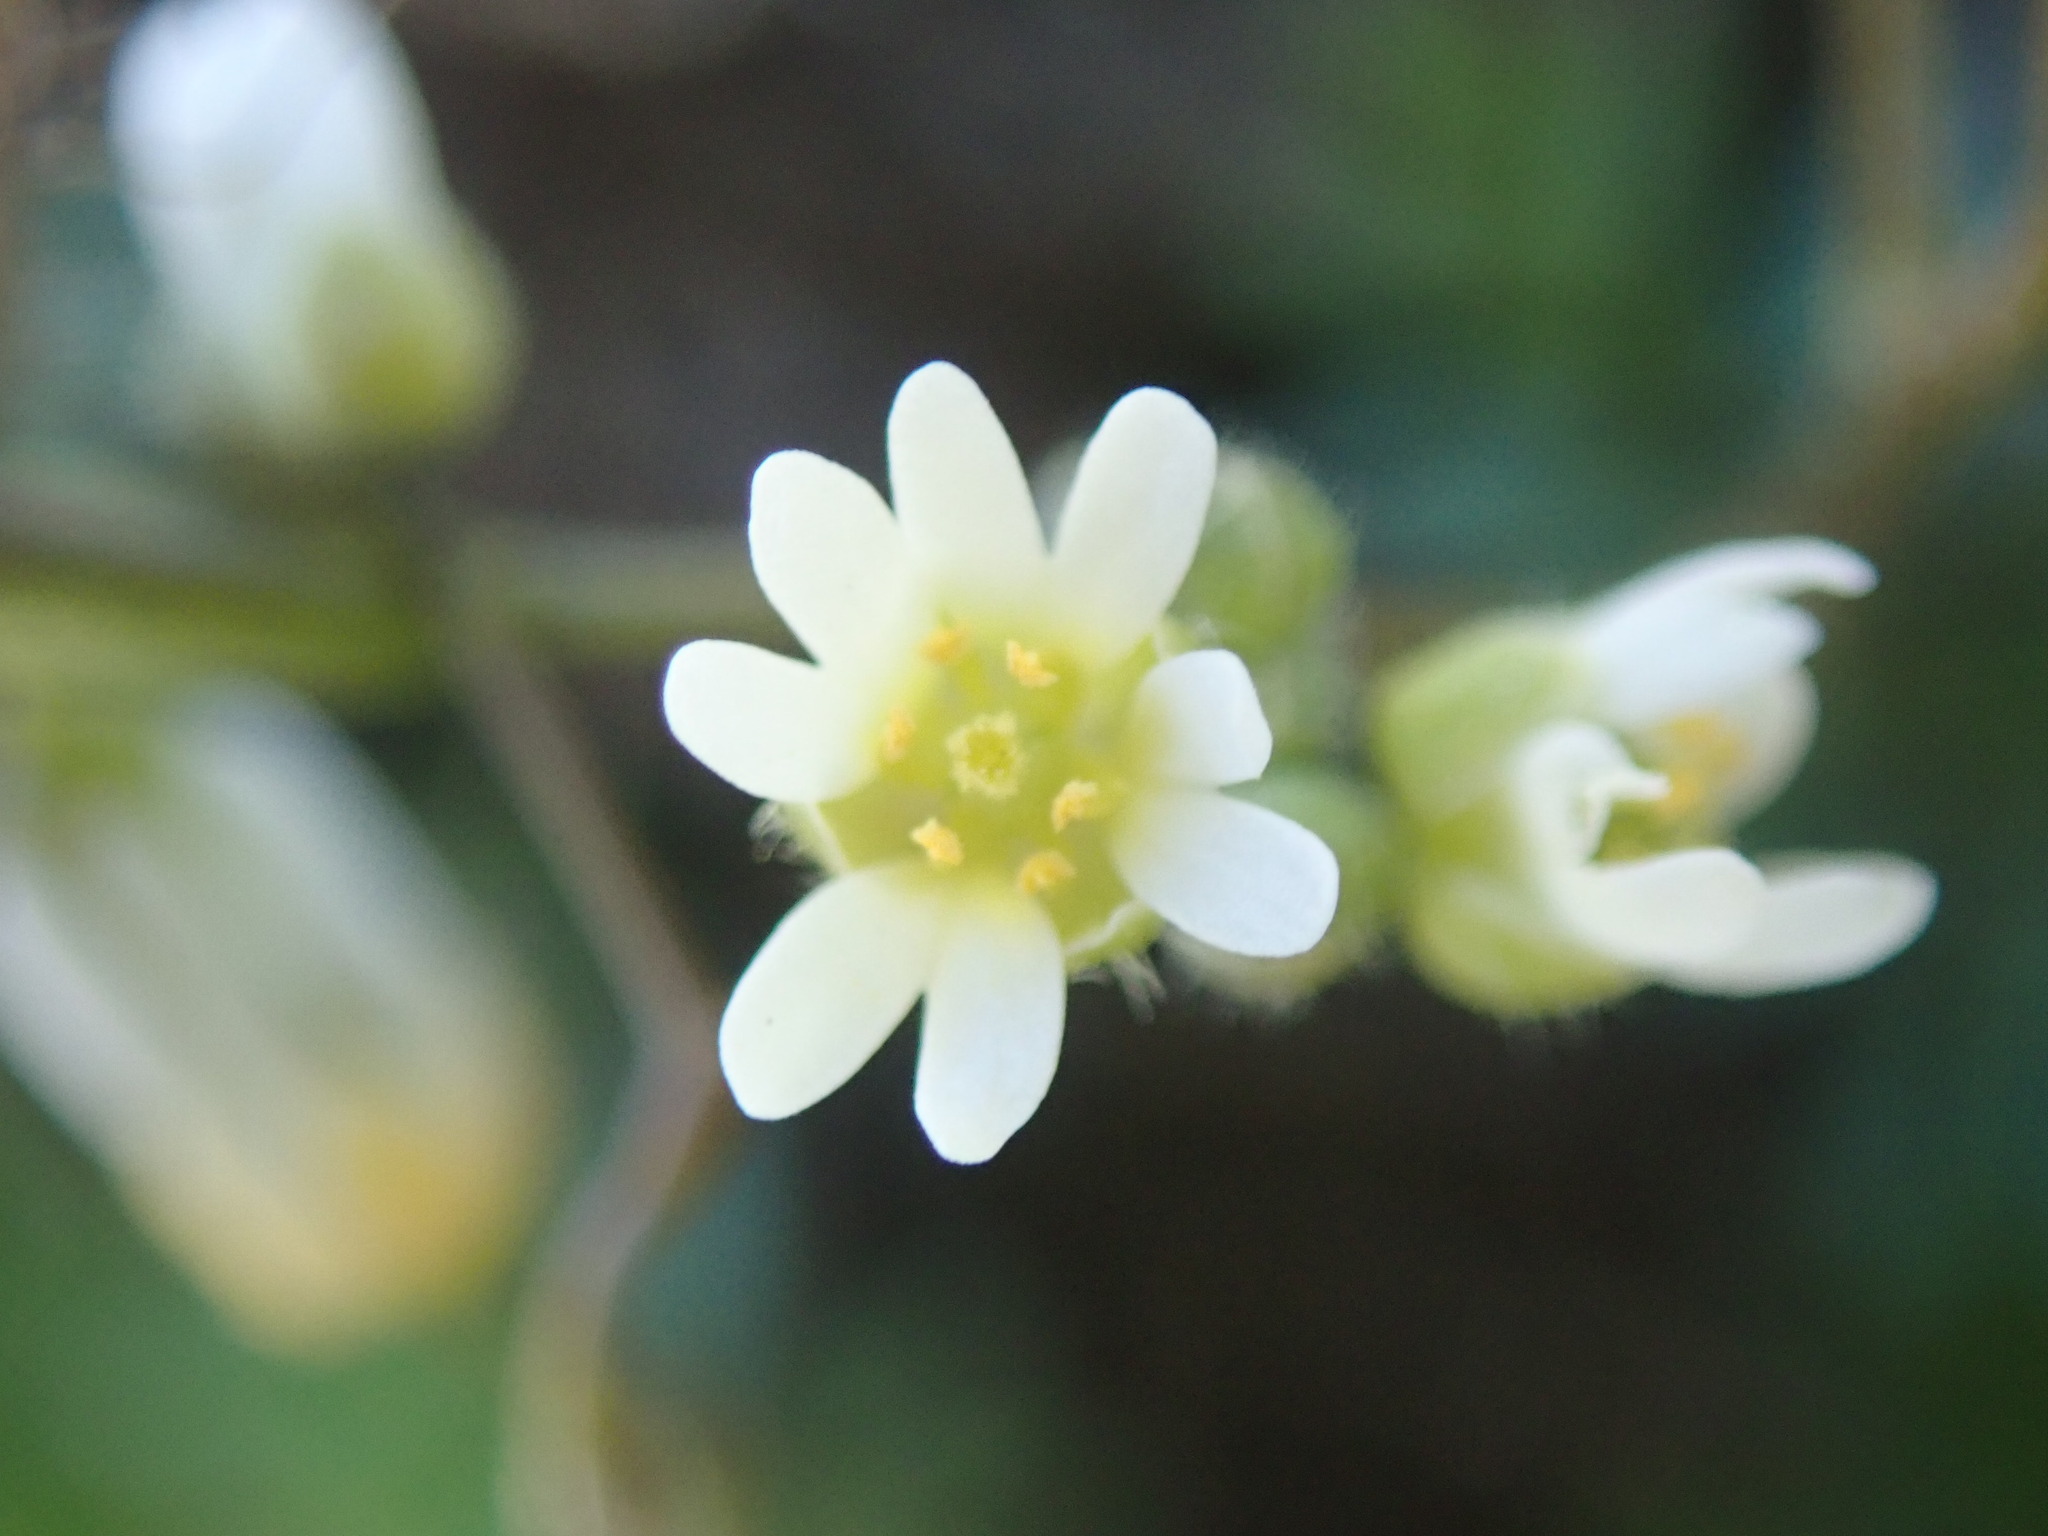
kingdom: Plantae
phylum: Tracheophyta
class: Magnoliopsida
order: Brassicales
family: Brassicaceae
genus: Draba
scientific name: Draba verna
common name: Spring draba
